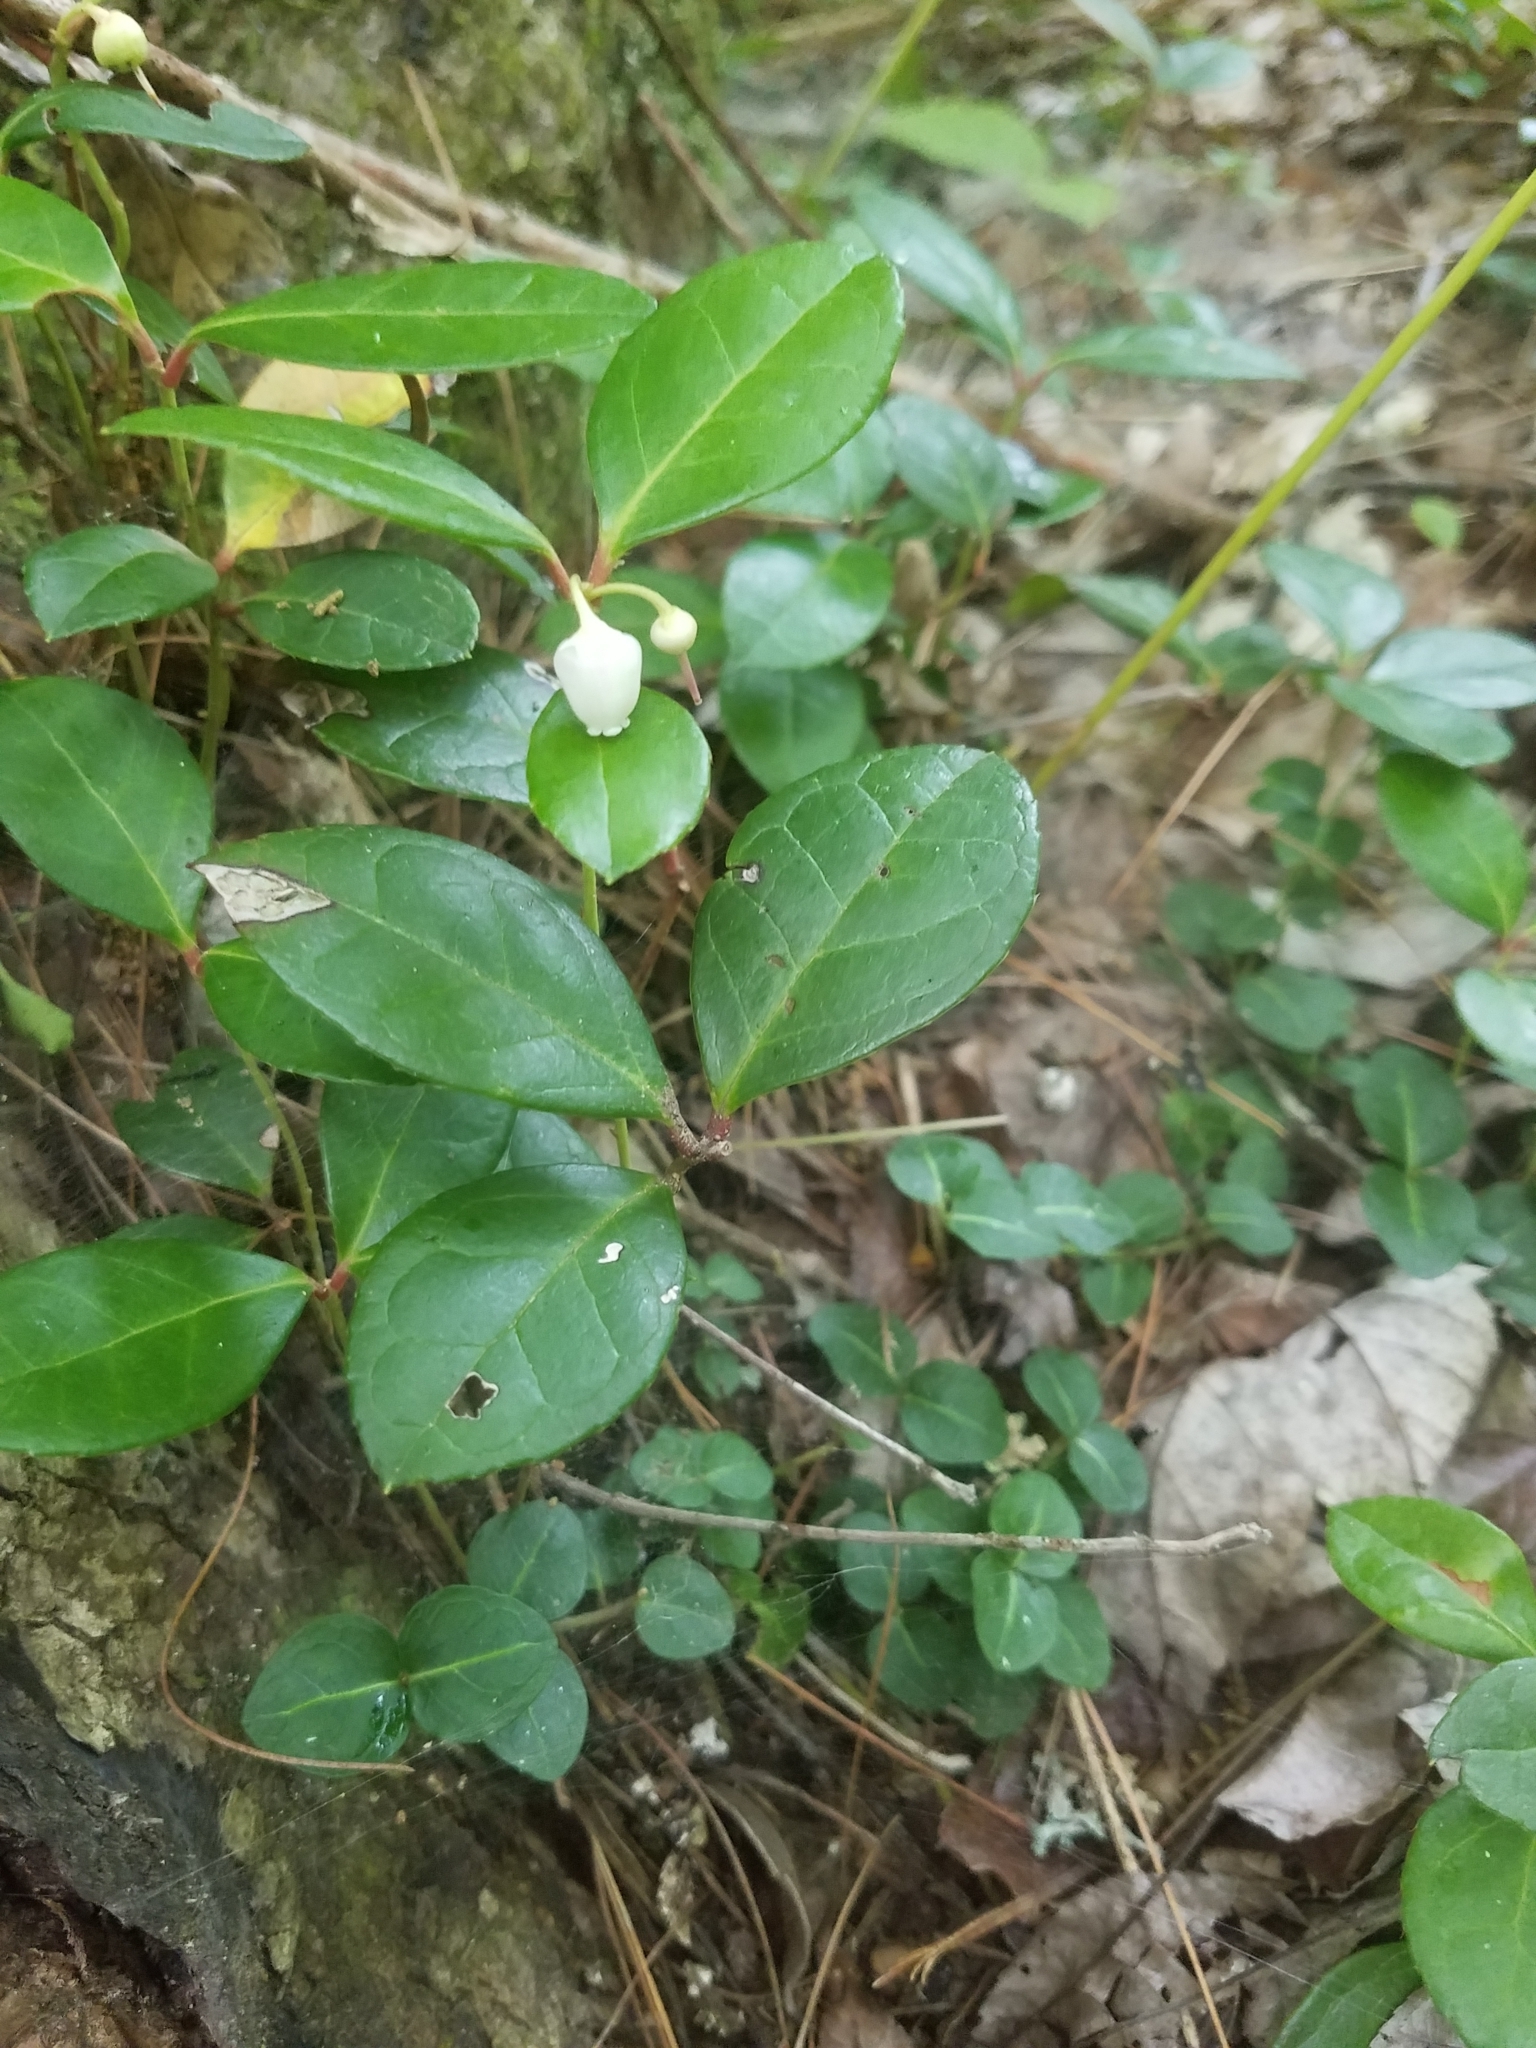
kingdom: Plantae
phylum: Tracheophyta
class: Magnoliopsida
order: Ericales
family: Ericaceae
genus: Gaultheria
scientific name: Gaultheria procumbens
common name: Checkerberry
